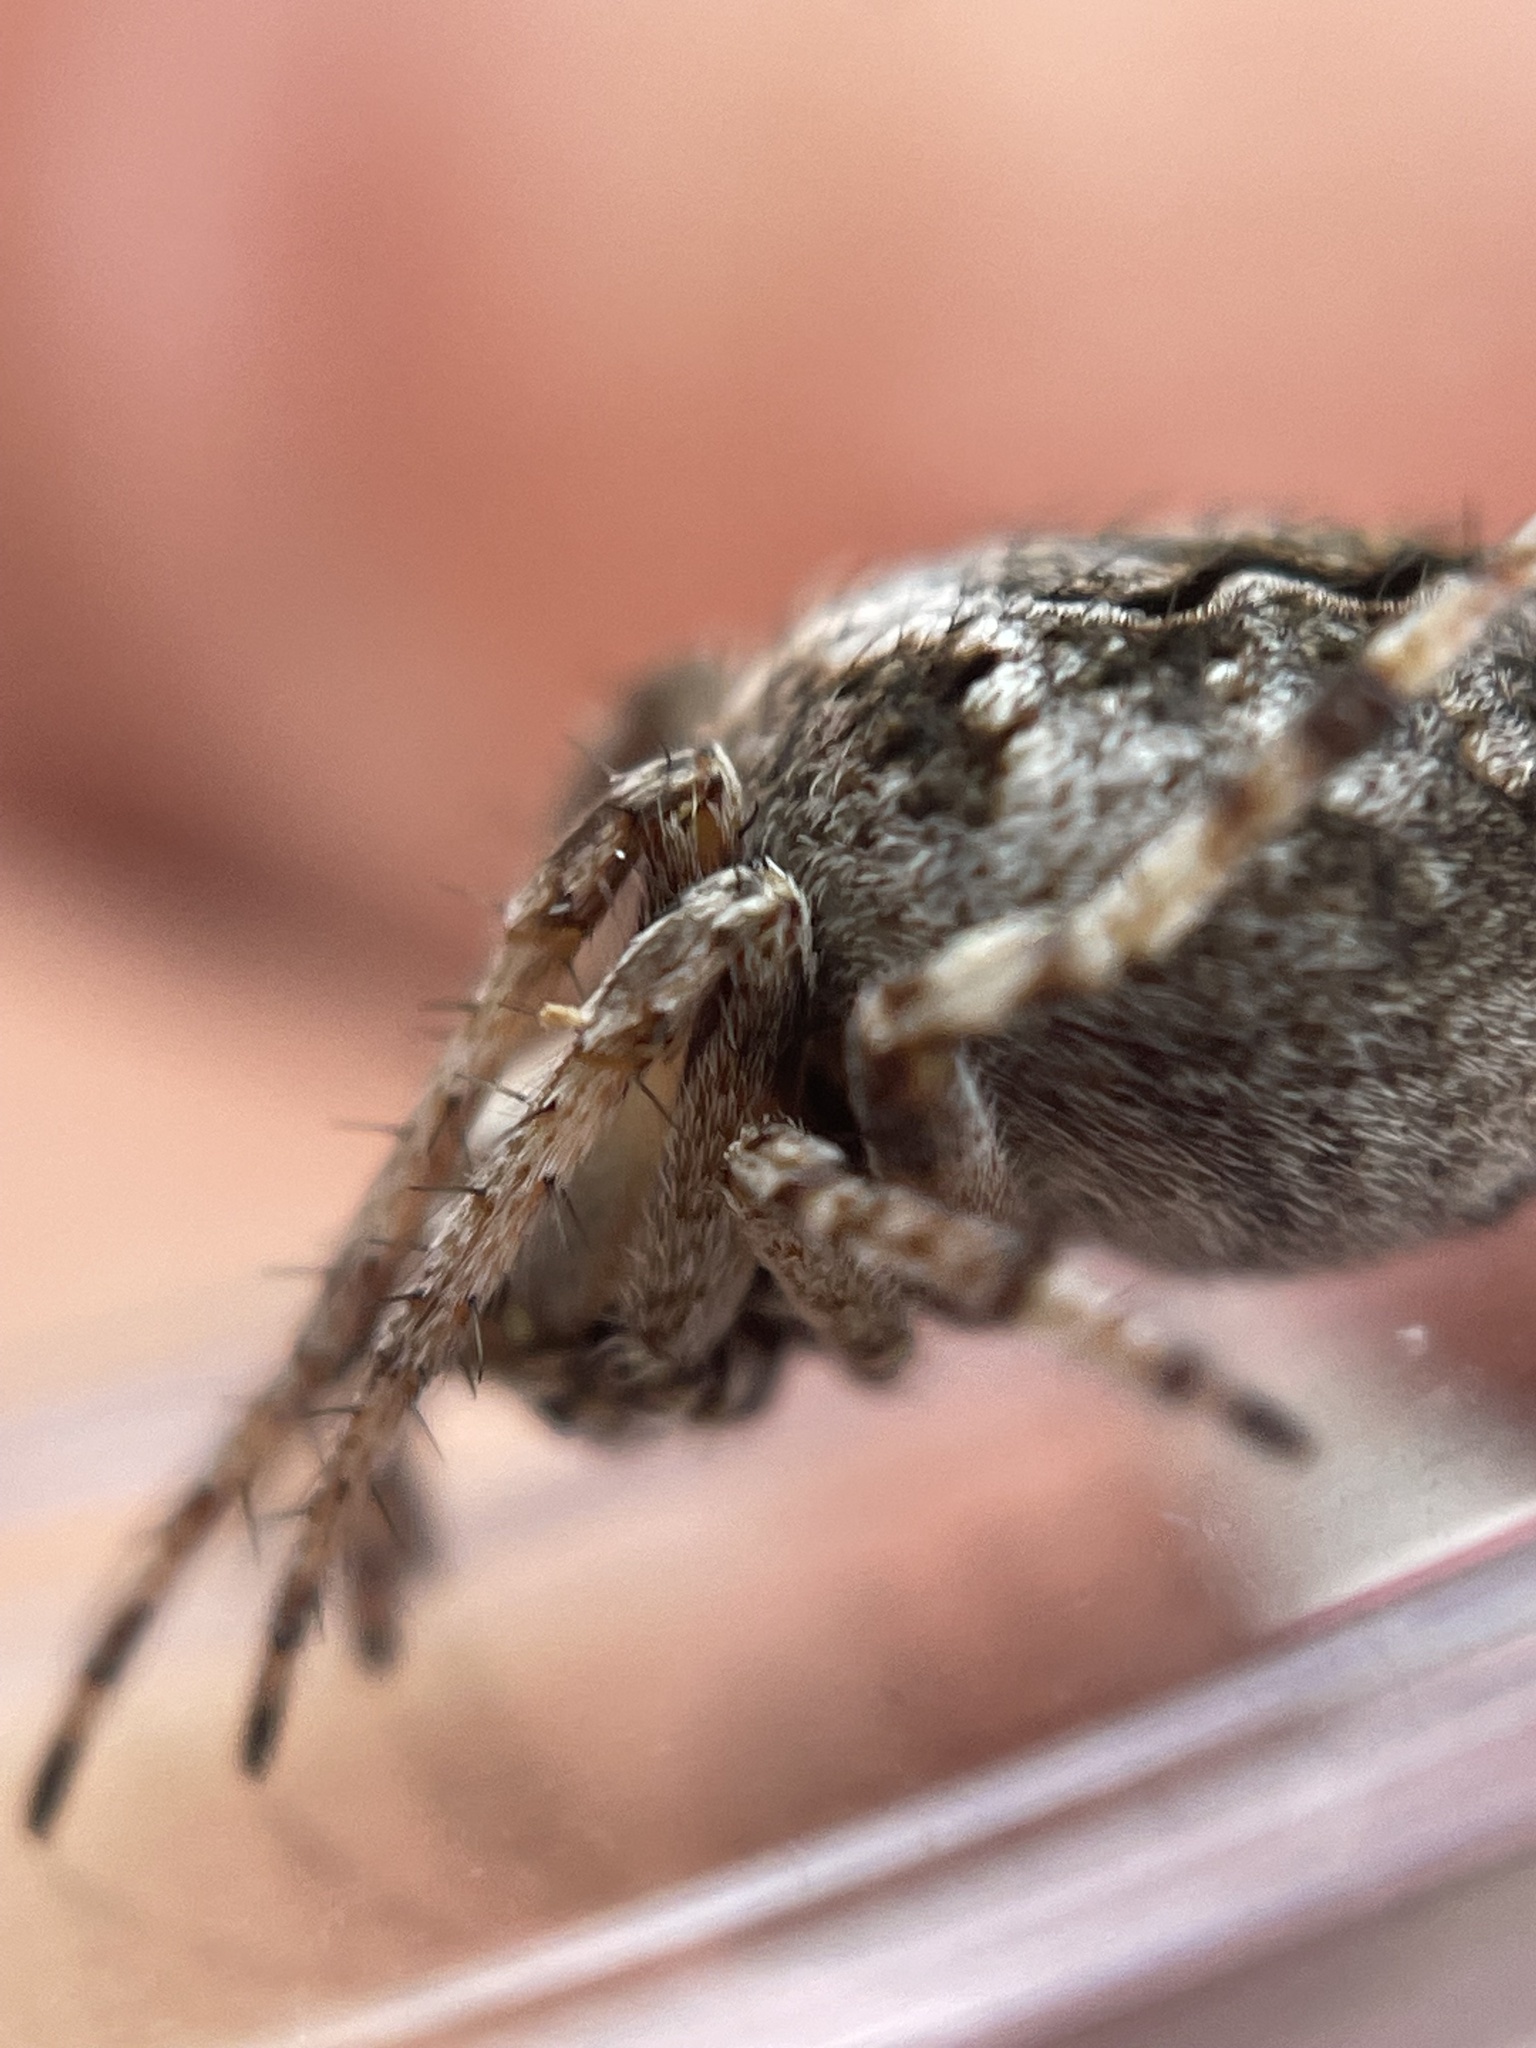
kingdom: Animalia
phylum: Arthropoda
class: Arachnida
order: Araneae
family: Araneidae
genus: Eustala
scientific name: Eustala anastera
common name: Orb weavers
